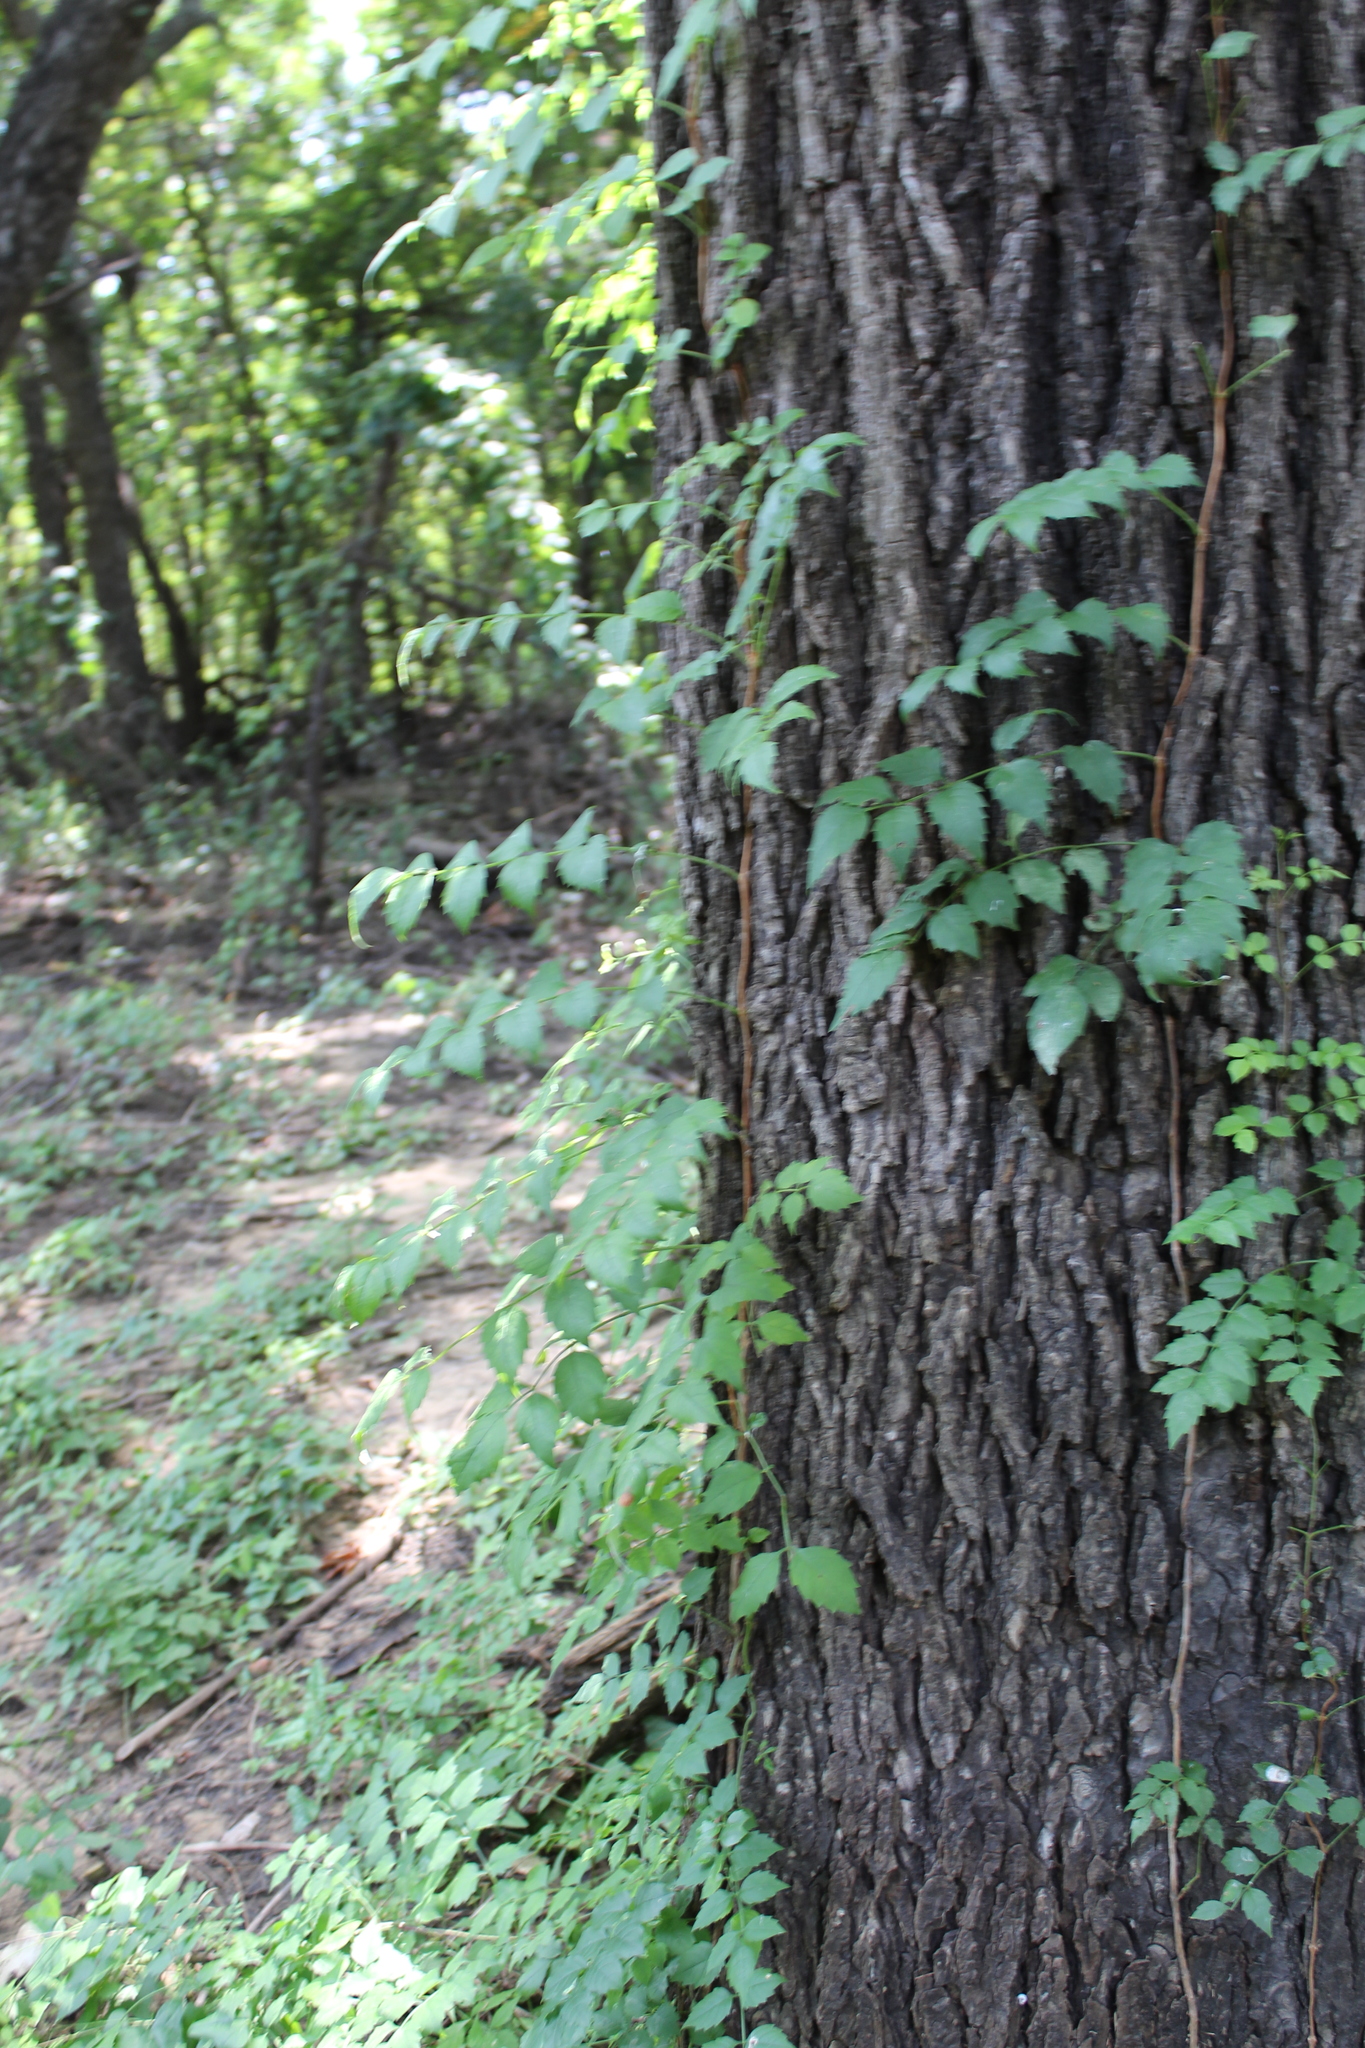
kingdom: Plantae
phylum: Tracheophyta
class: Magnoliopsida
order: Lamiales
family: Bignoniaceae
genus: Campsis
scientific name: Campsis radicans
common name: Trumpet-creeper
